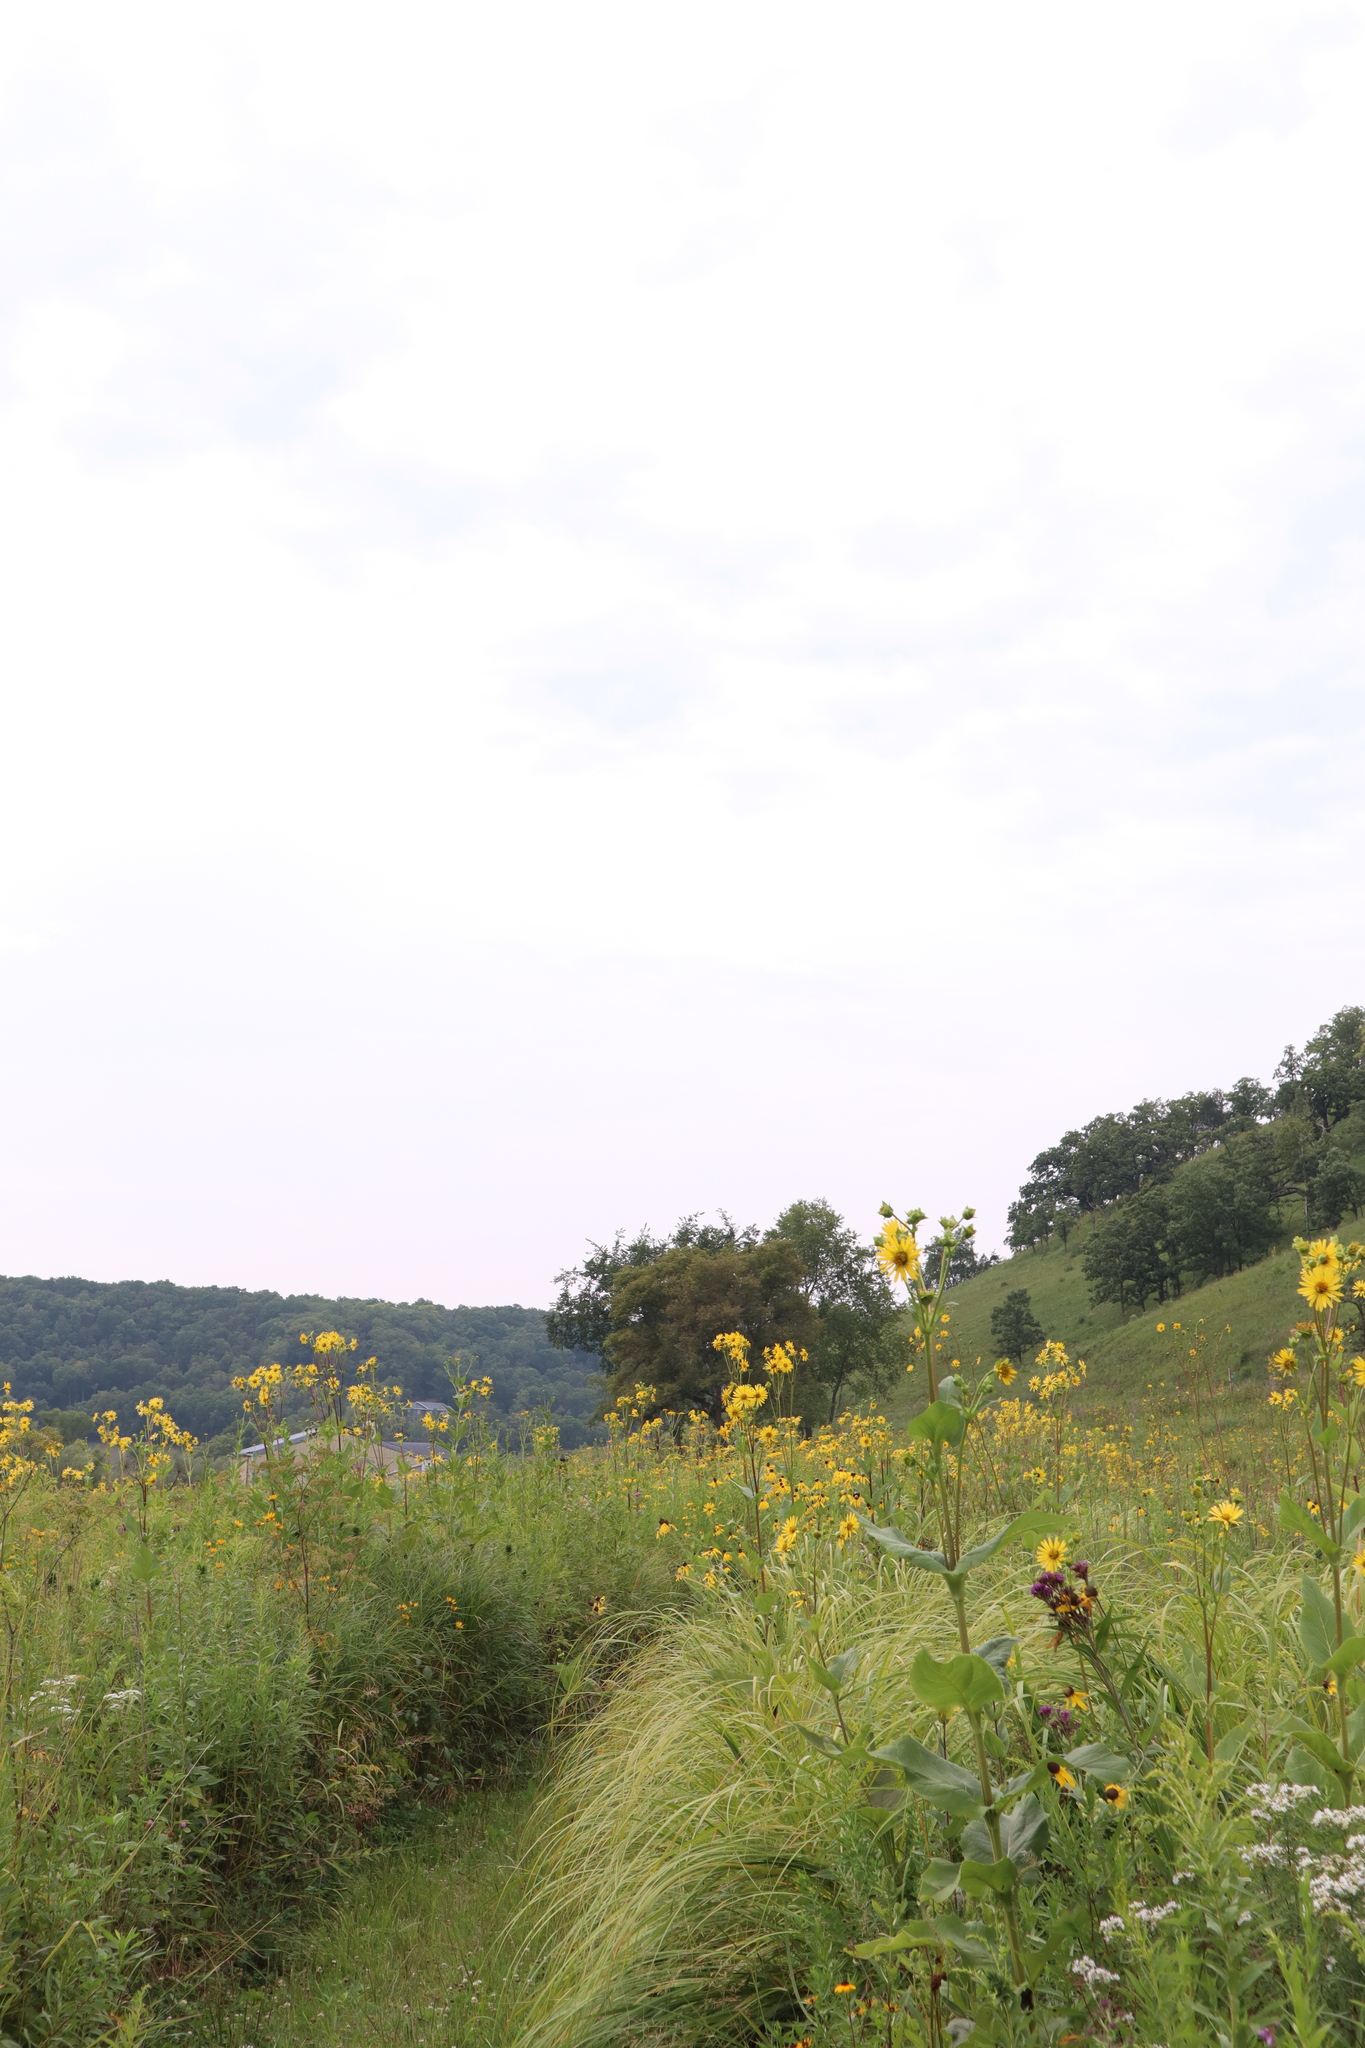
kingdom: Plantae
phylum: Tracheophyta
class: Magnoliopsida
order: Asterales
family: Asteraceae
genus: Silphium
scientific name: Silphium perfoliatum
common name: Cup-plant
